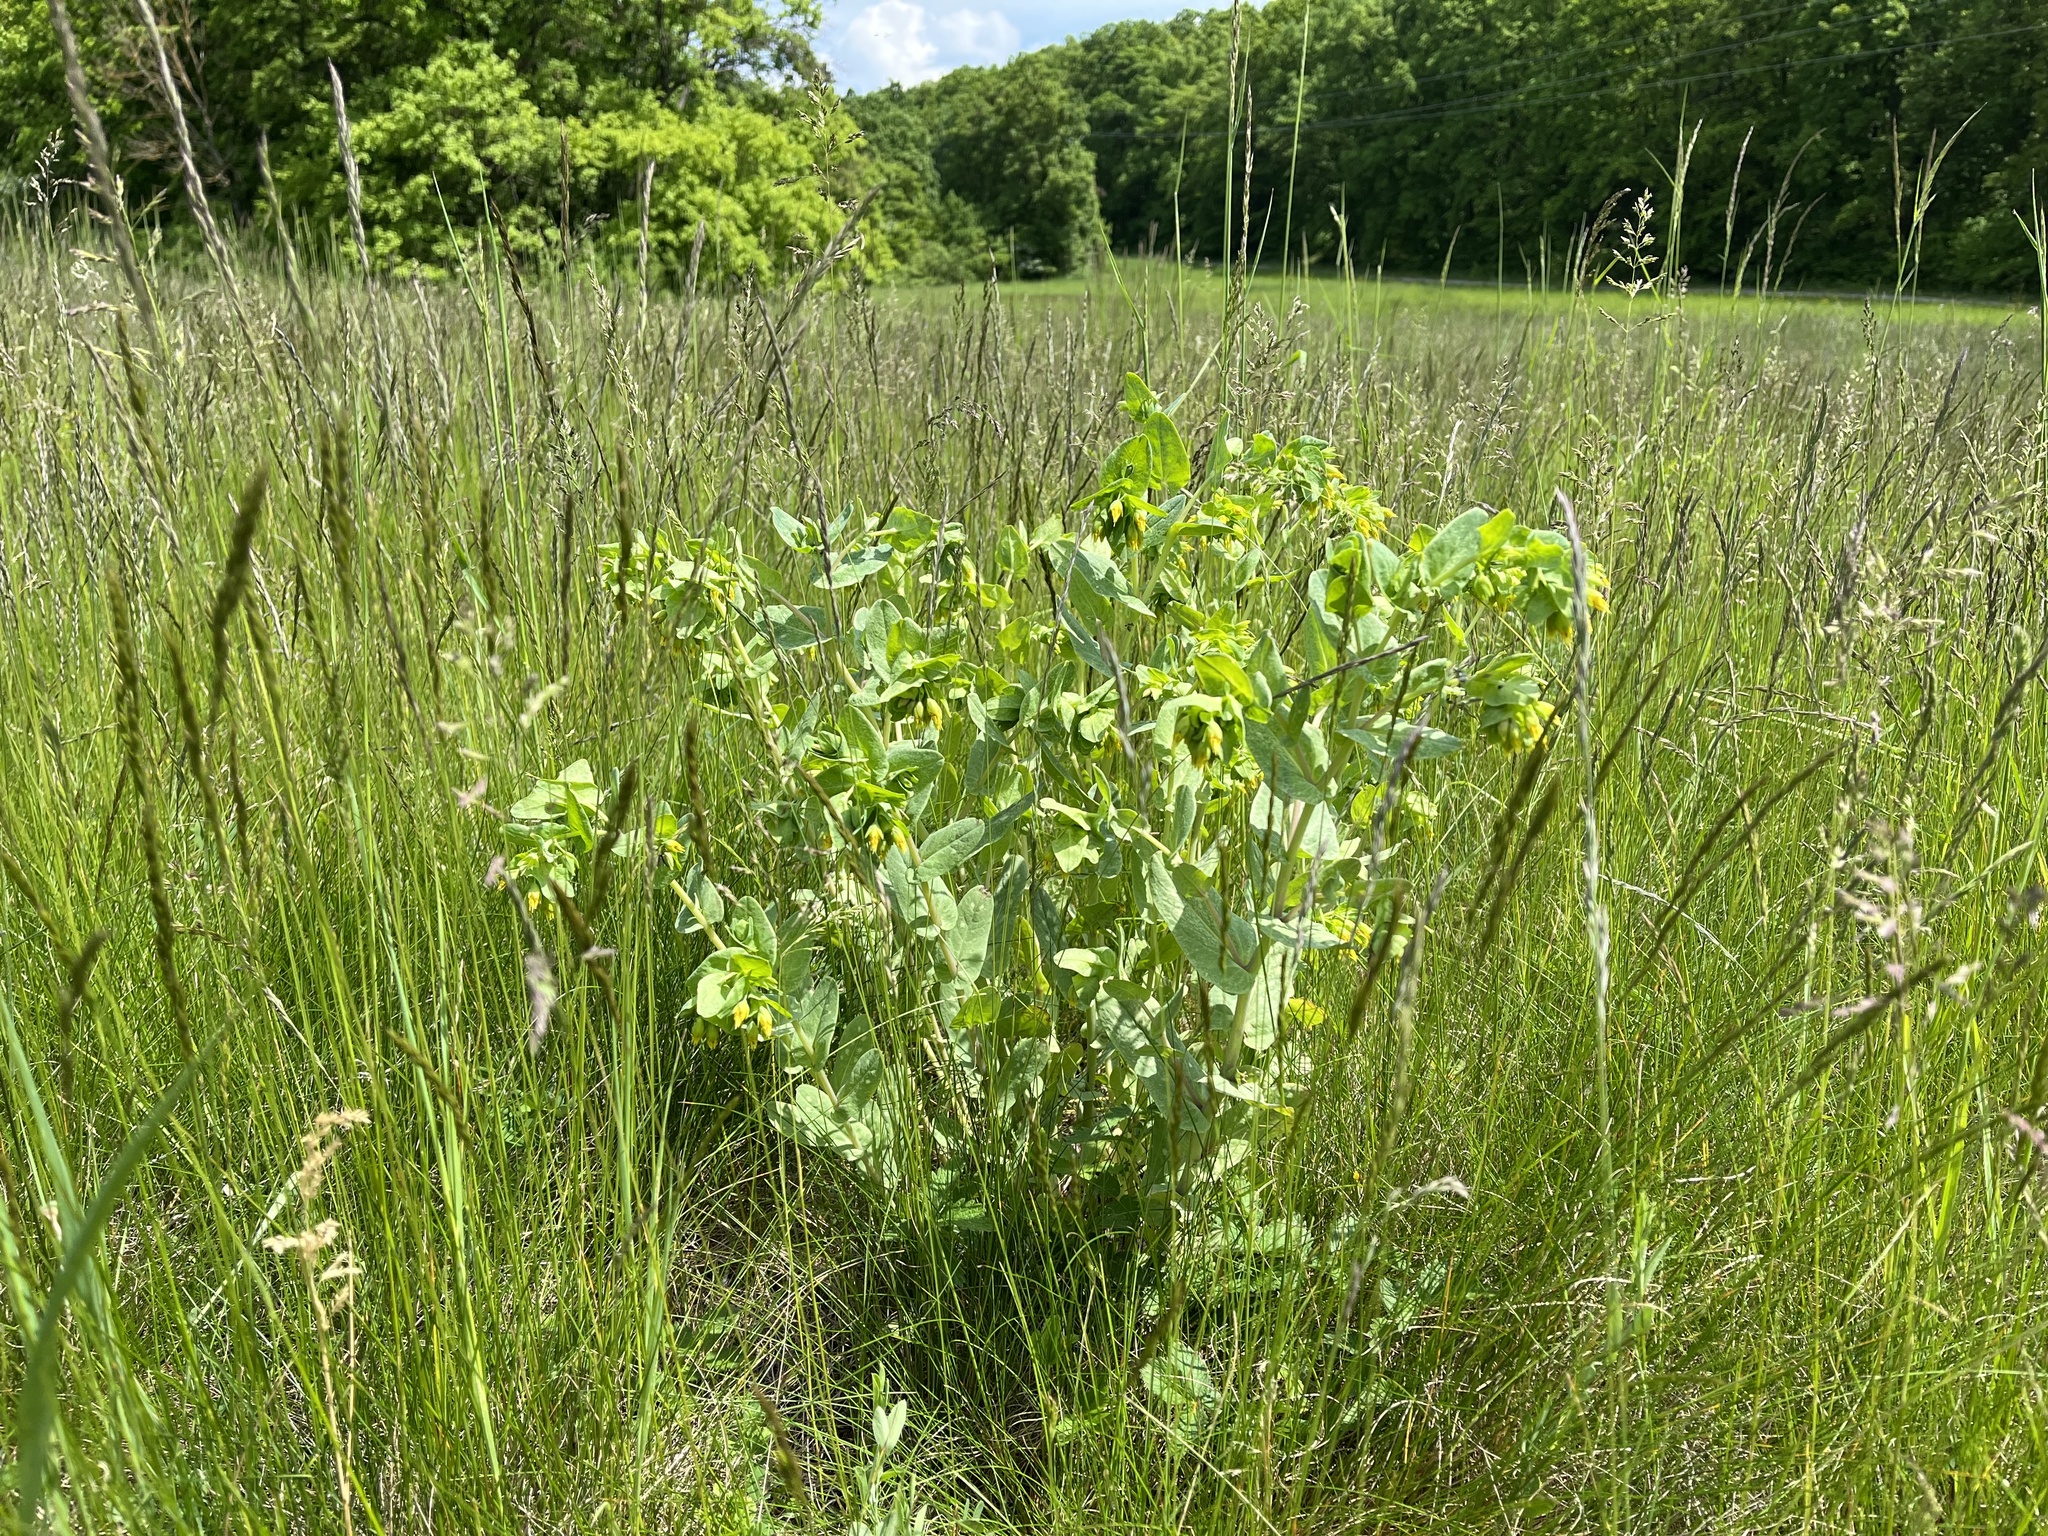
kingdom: Plantae
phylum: Tracheophyta
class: Magnoliopsida
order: Boraginales
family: Boraginaceae
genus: Cerinthe
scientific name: Cerinthe minor
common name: Lesser honeywort
